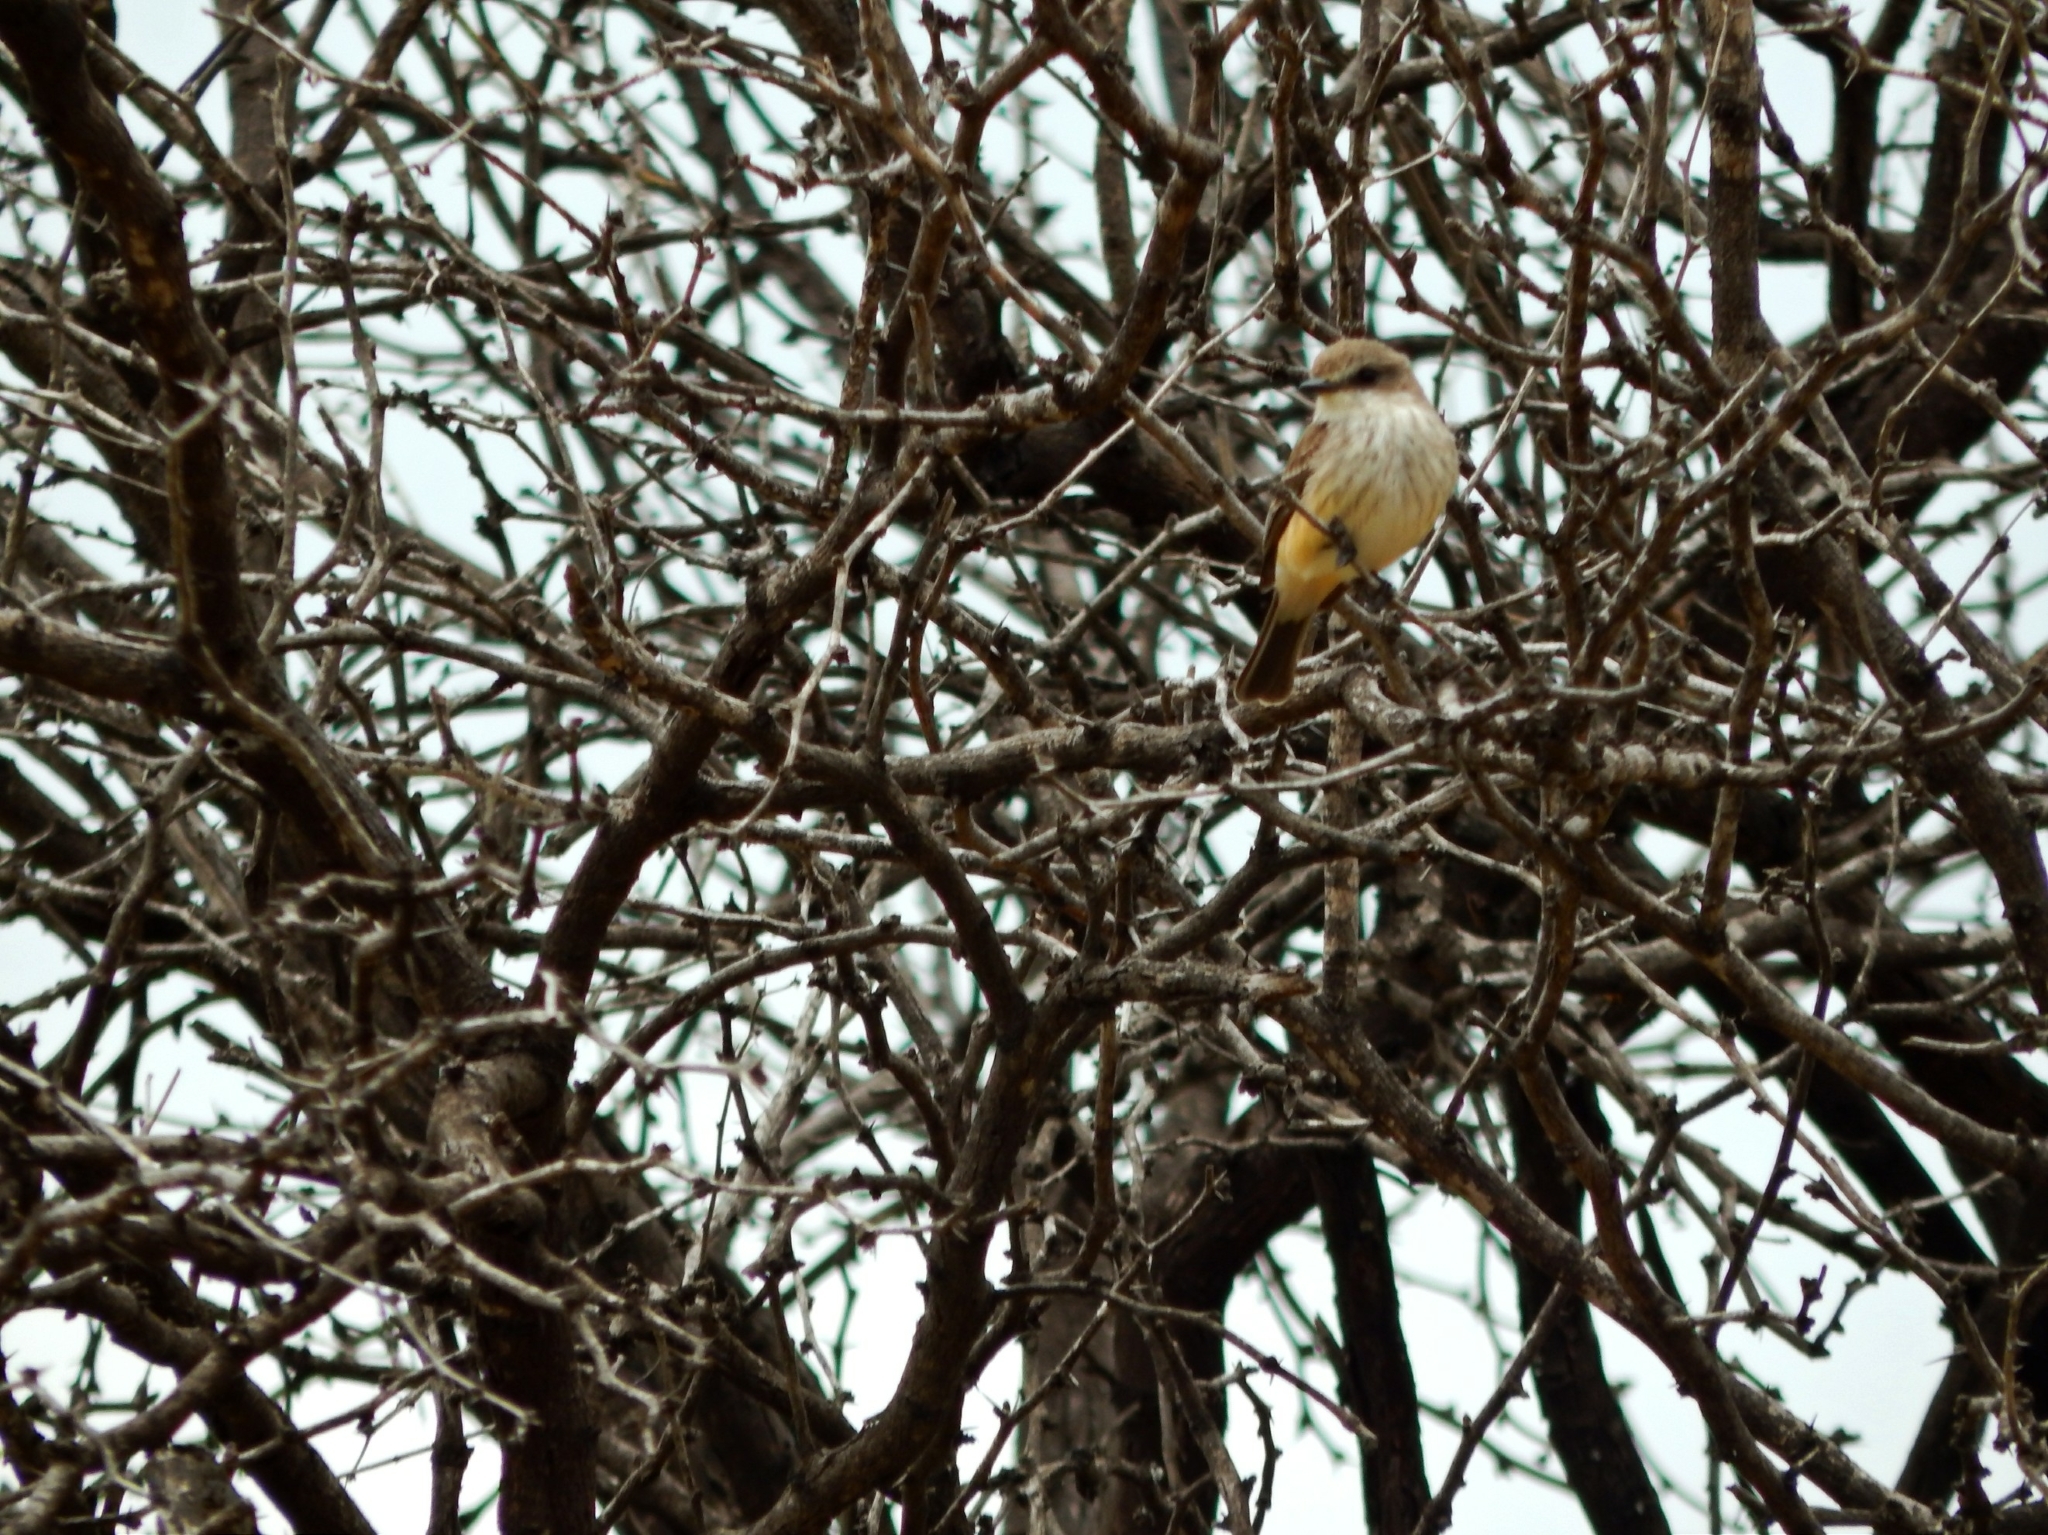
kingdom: Animalia
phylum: Chordata
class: Aves
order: Passeriformes
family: Tyrannidae
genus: Pyrocephalus
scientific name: Pyrocephalus rubinus
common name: Vermilion flycatcher
